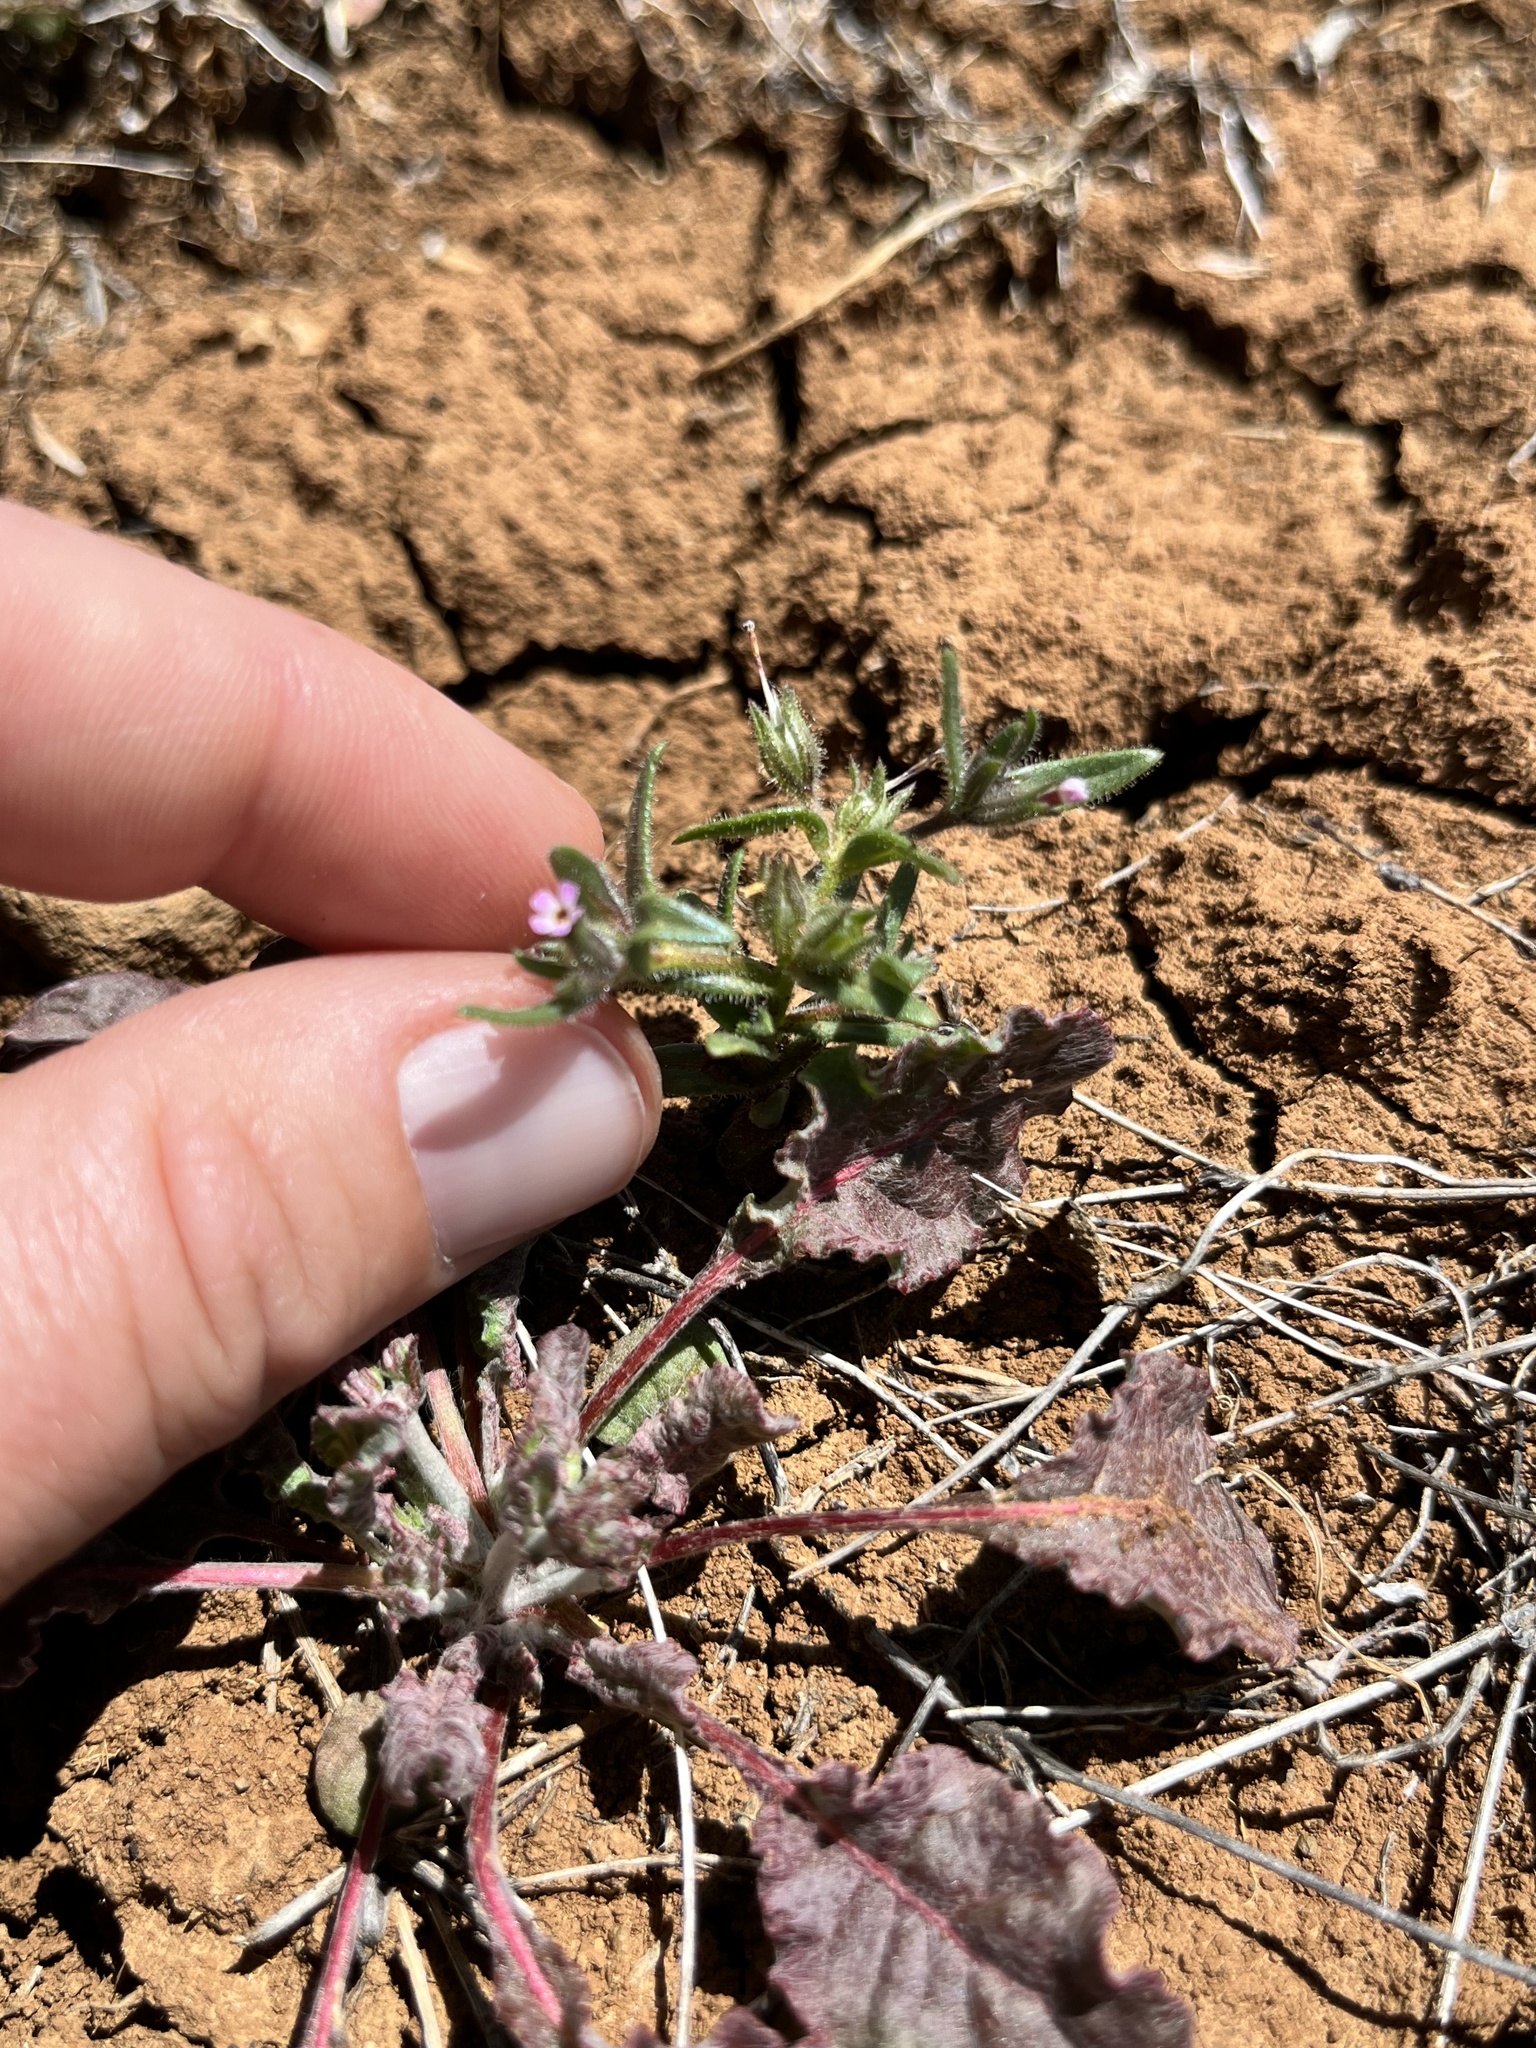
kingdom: Plantae
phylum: Tracheophyta
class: Magnoliopsida
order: Ericales
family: Polemoniaceae
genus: Phlox
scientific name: Phlox gracilis
